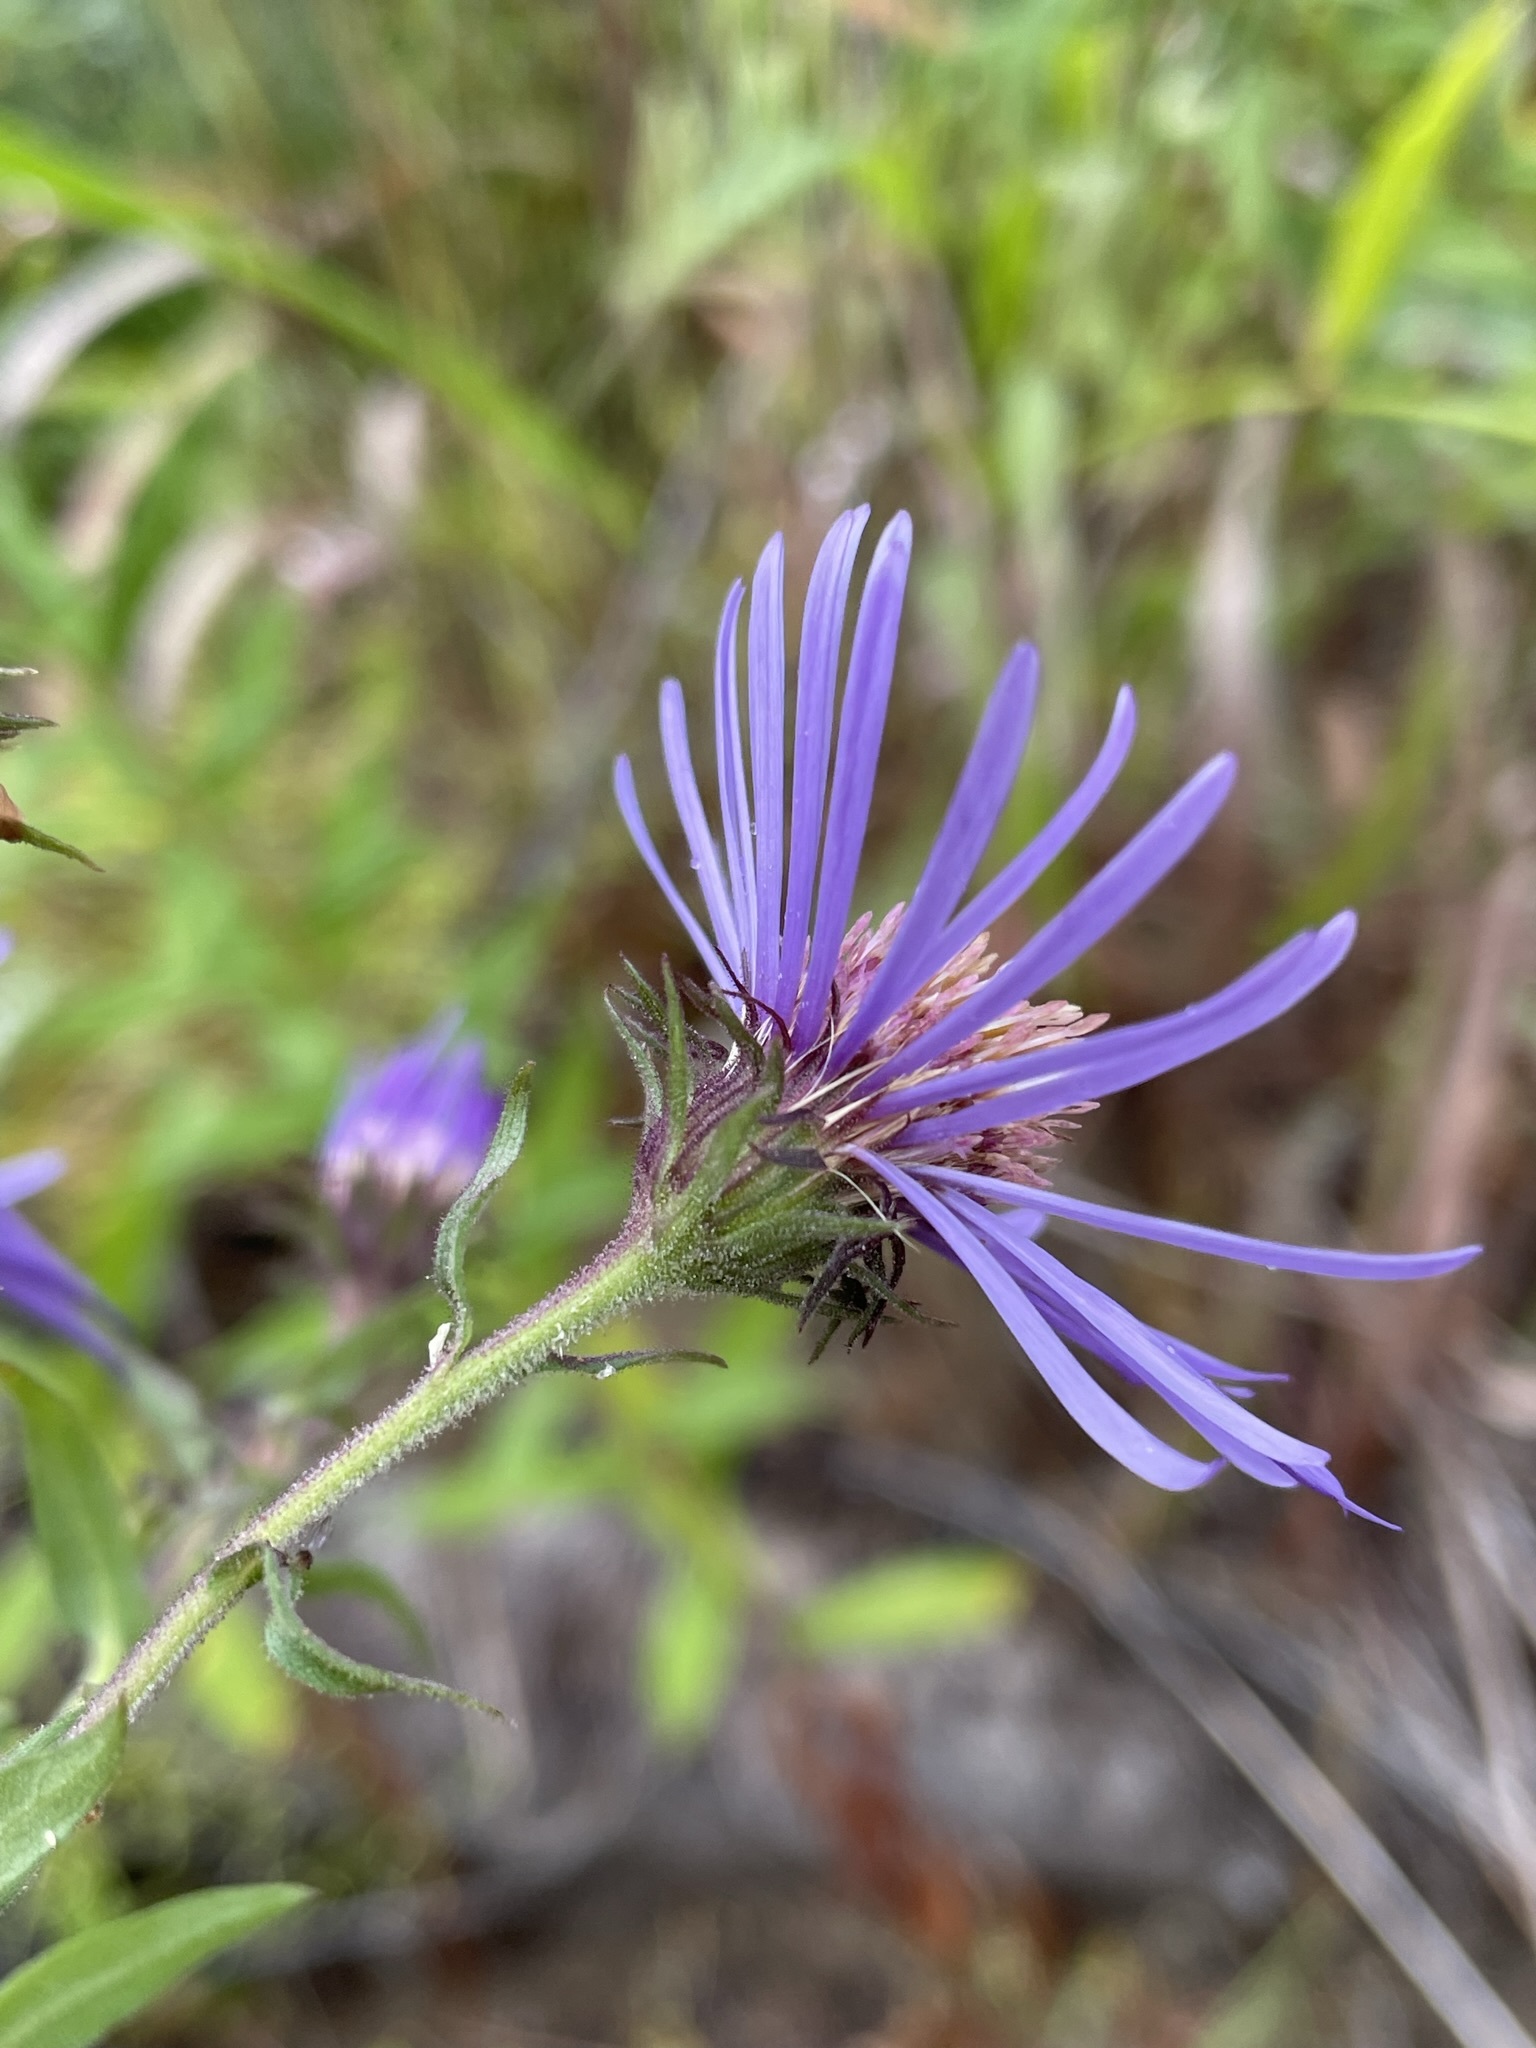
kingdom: Plantae
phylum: Tracheophyta
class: Magnoliopsida
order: Asterales
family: Asteraceae
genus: Canadanthus
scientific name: Canadanthus modestus
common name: Great northern aster
